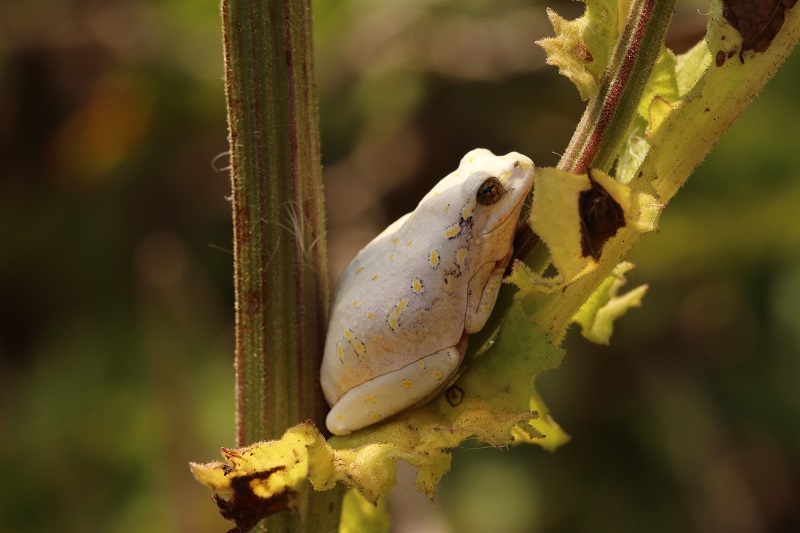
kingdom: Animalia
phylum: Chordata
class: Amphibia
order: Anura
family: Hyperoliidae
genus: Hyperolius
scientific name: Hyperolius marmoratus
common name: Painted reed frog
